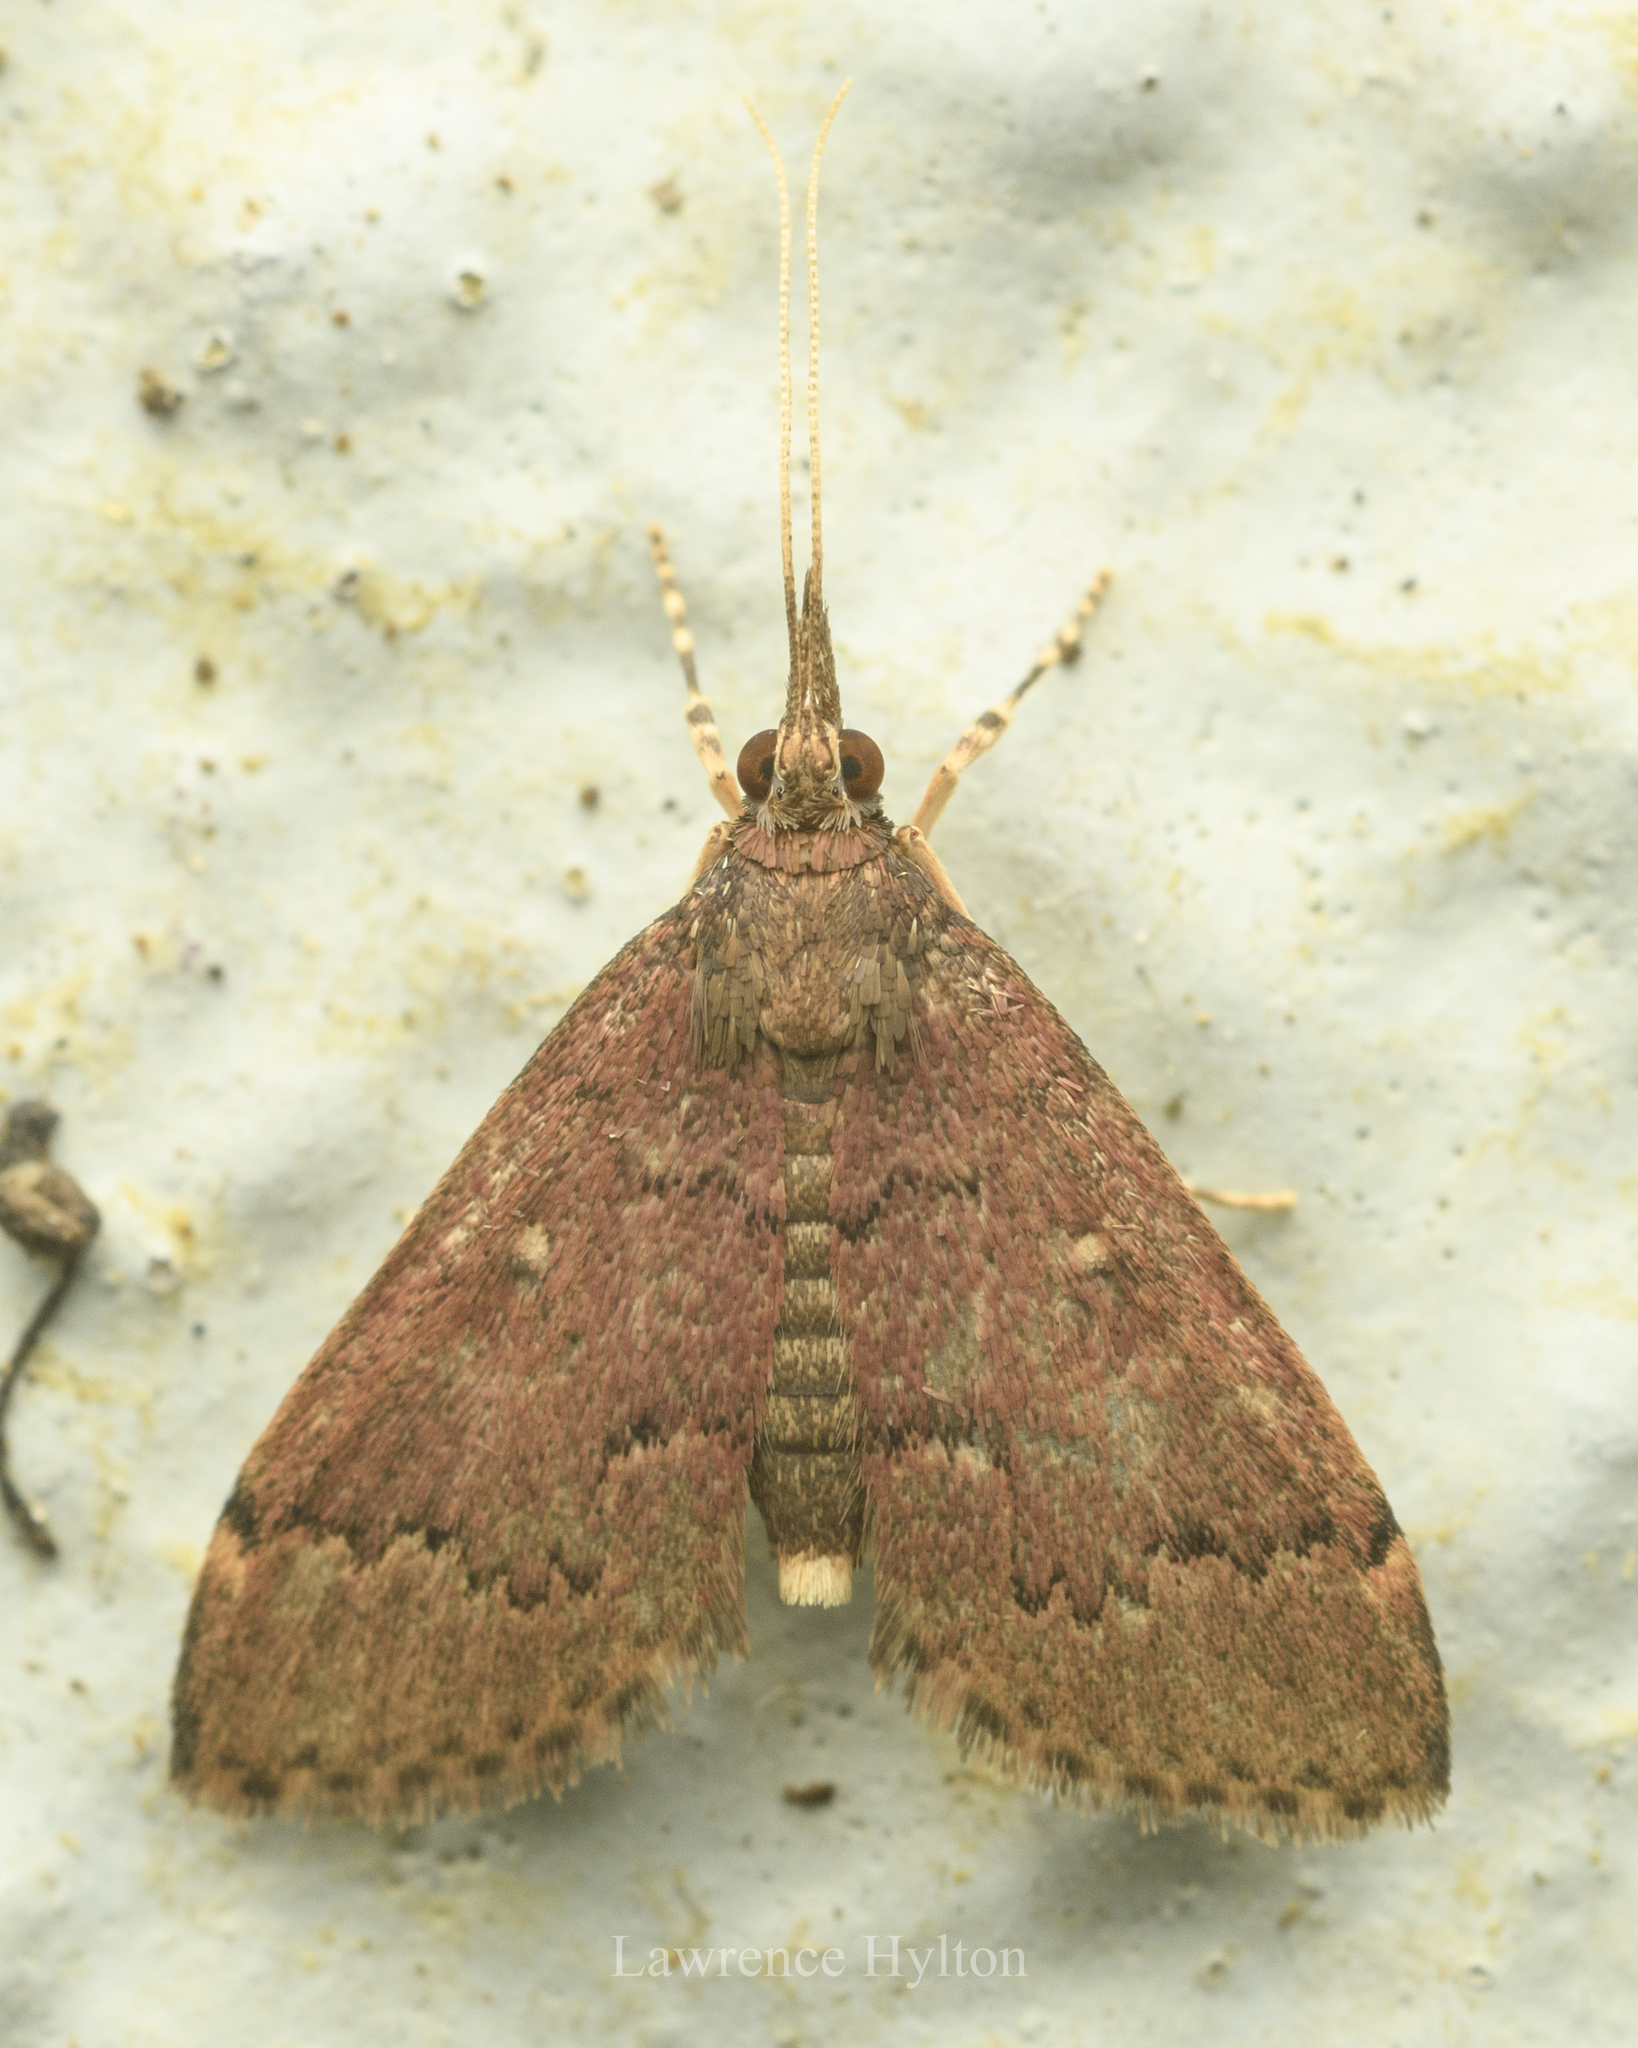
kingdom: Animalia
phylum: Arthropoda
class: Insecta
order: Lepidoptera
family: Crambidae
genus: Camptomastix
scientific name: Camptomastix hisbonalis
